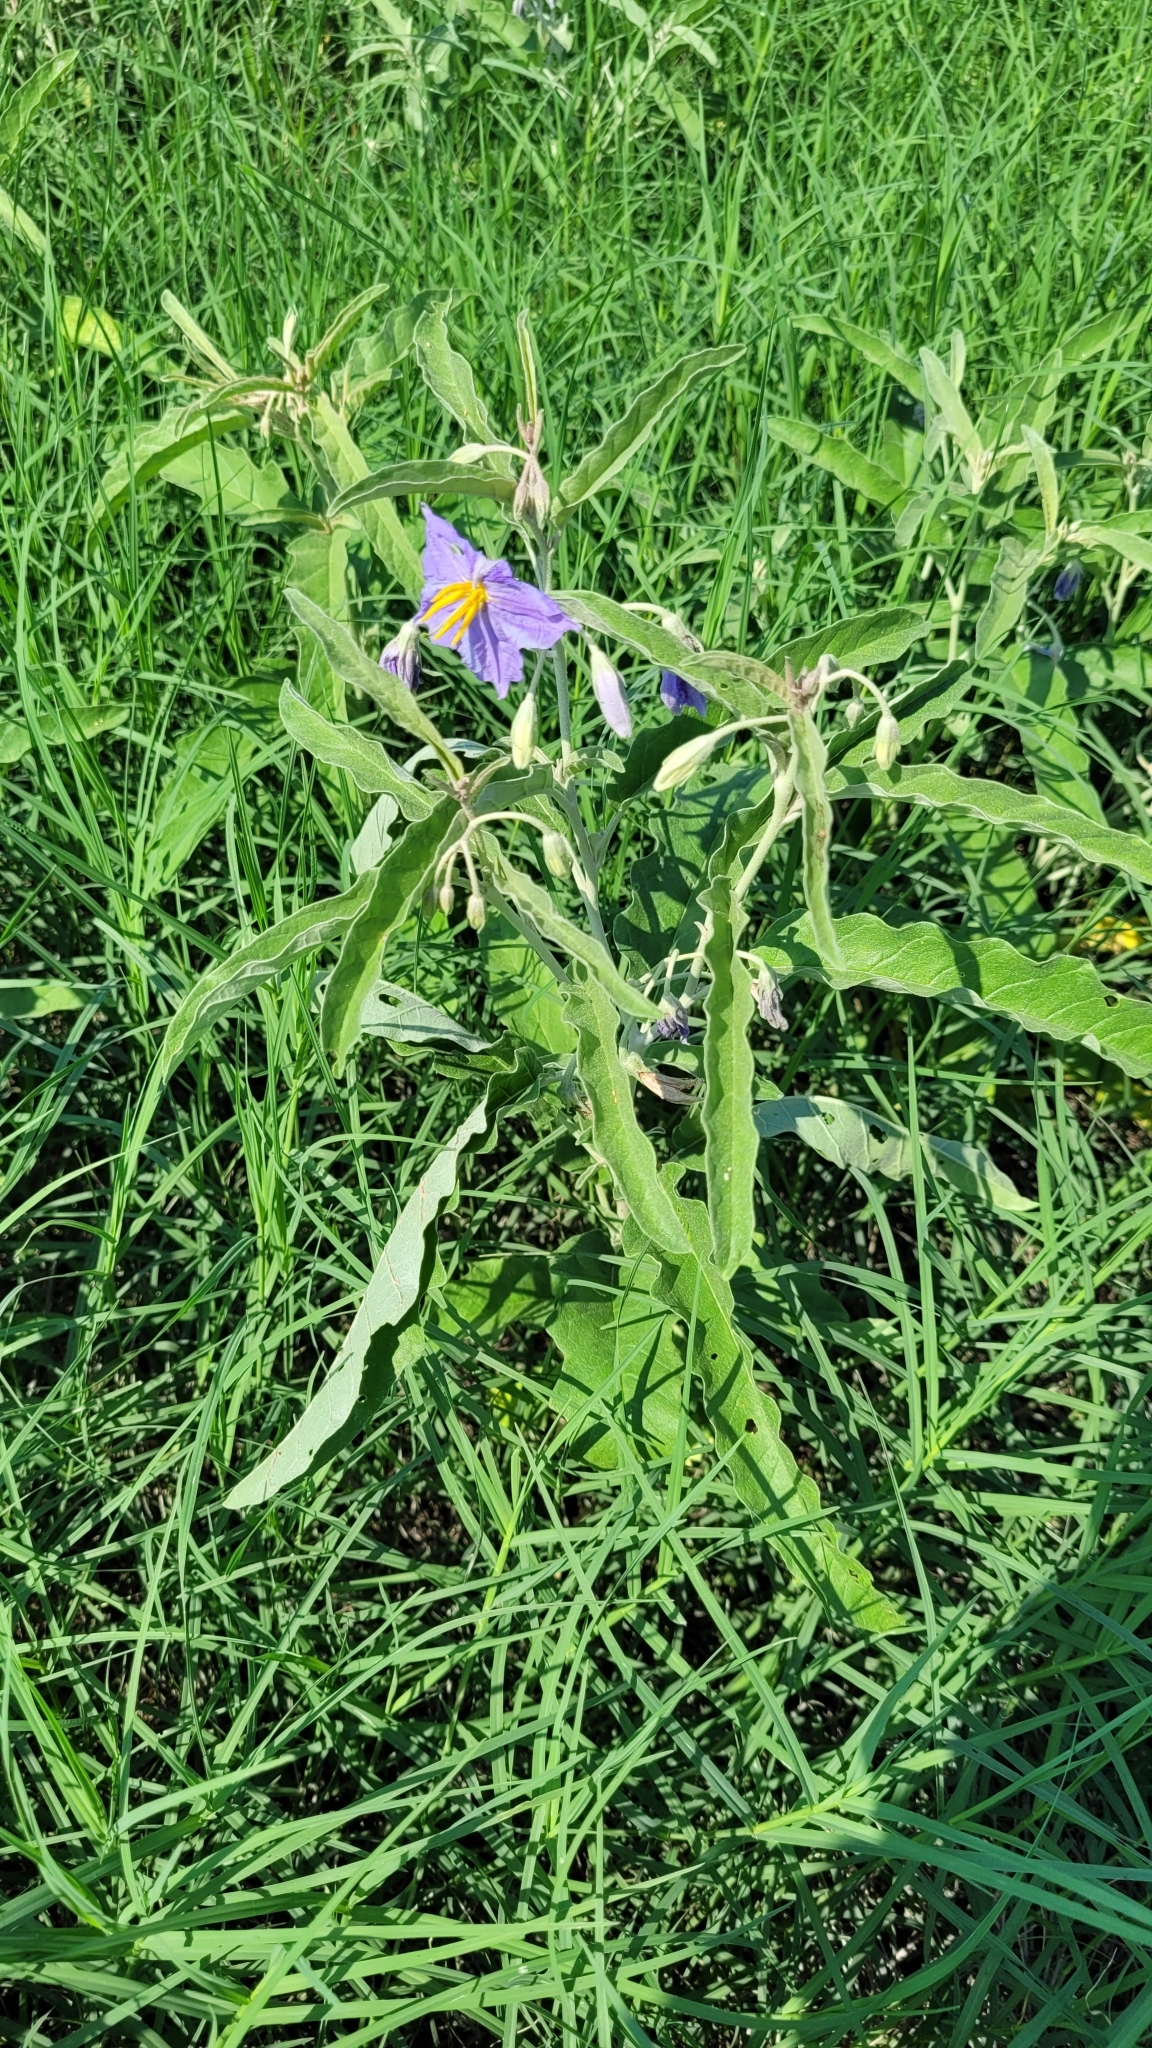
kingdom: Plantae
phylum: Tracheophyta
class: Magnoliopsida
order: Solanales
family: Solanaceae
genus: Solanum
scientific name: Solanum elaeagnifolium
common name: Silverleaf nightshade
